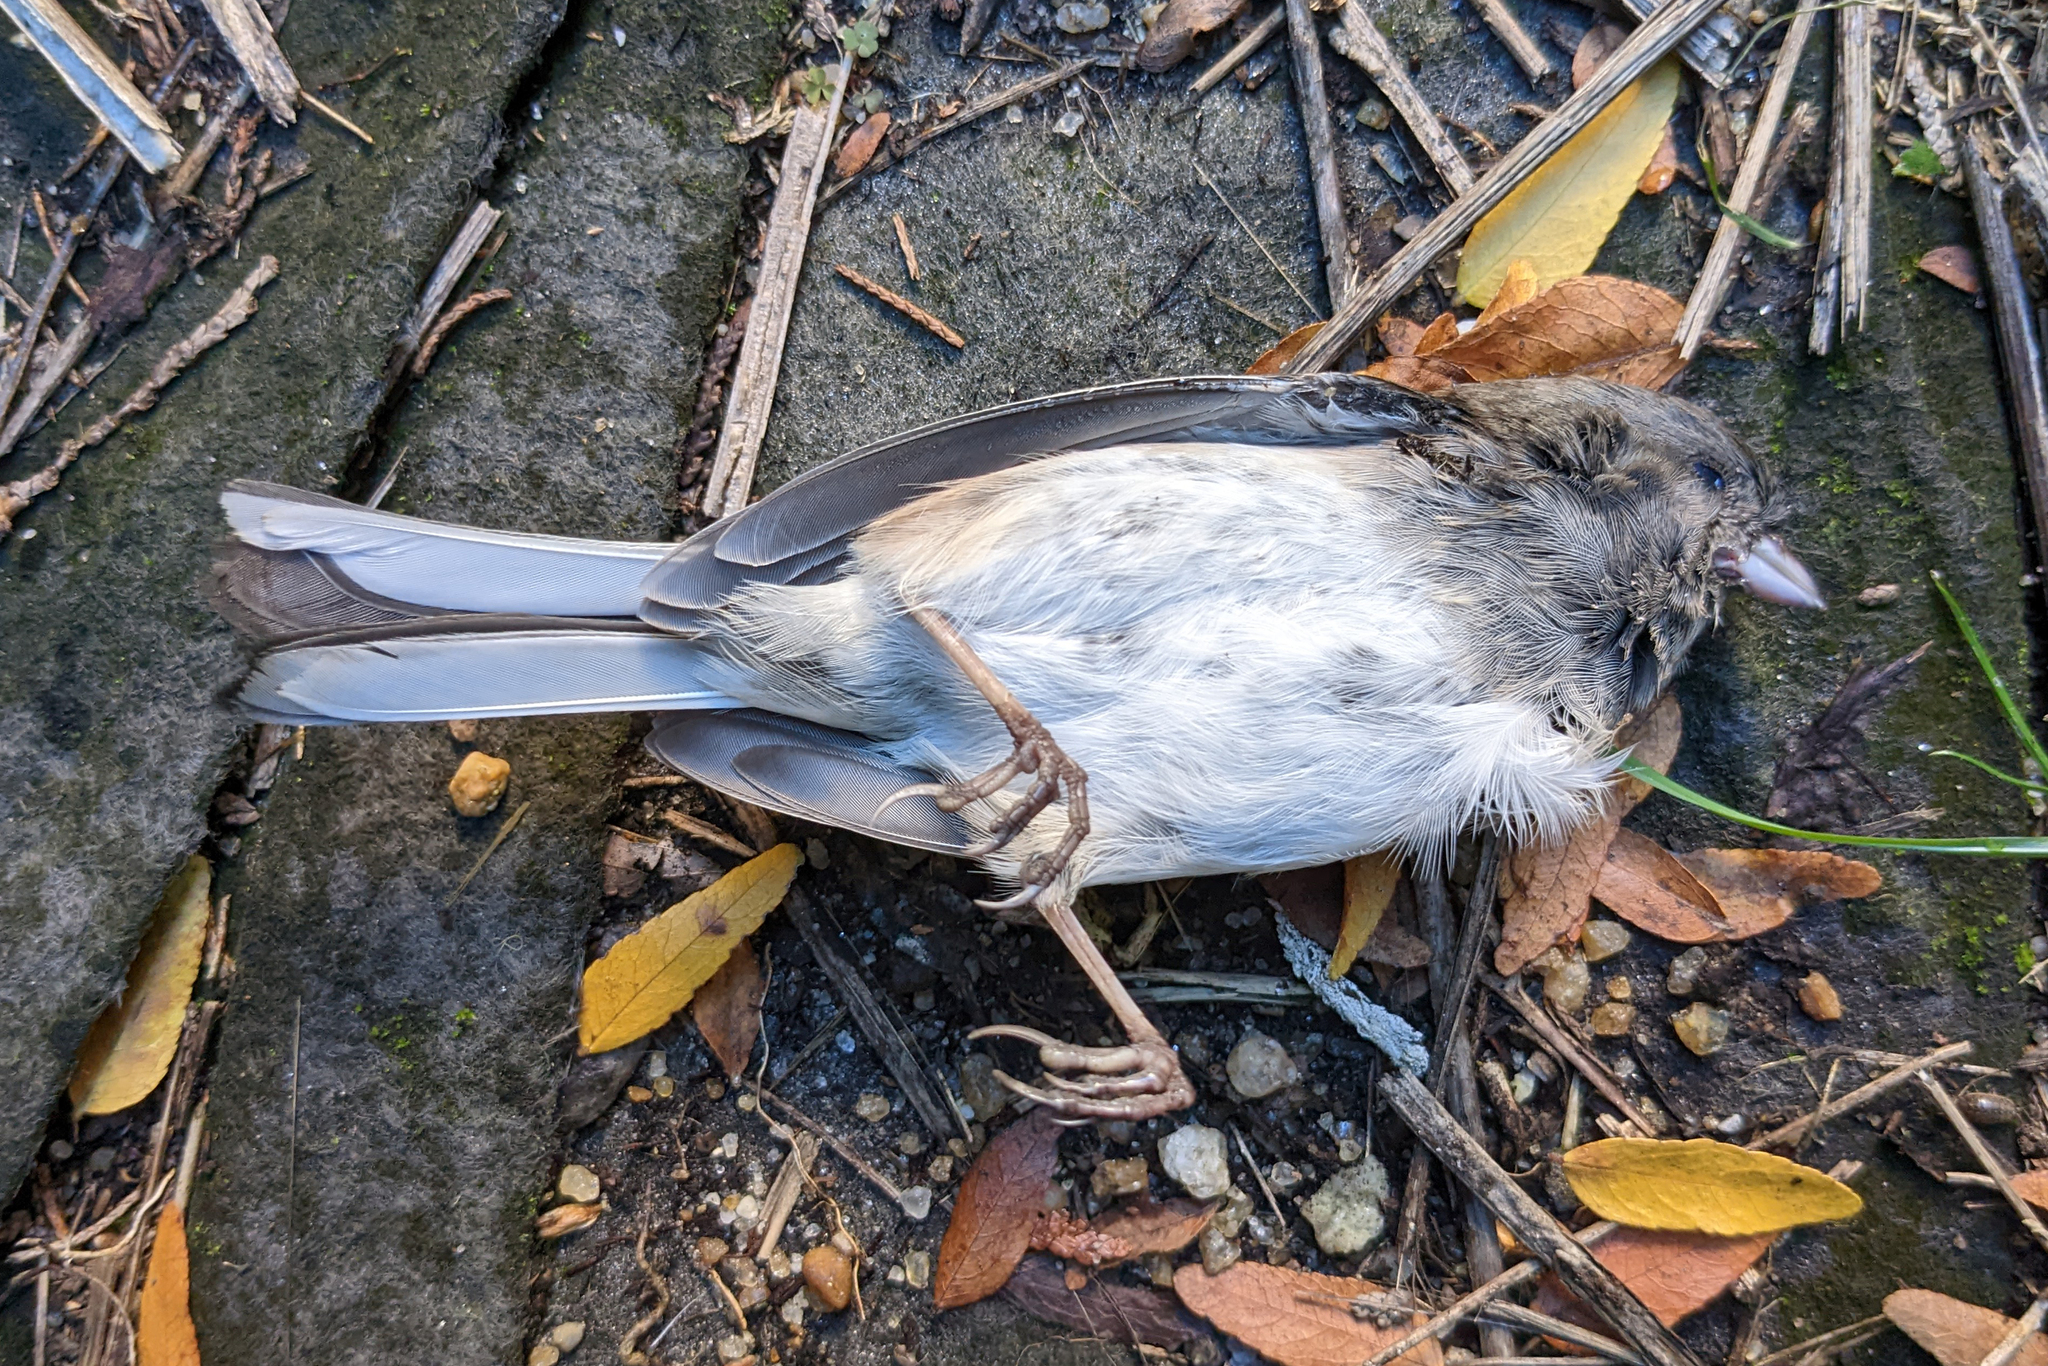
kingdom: Animalia
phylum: Chordata
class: Aves
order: Passeriformes
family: Passerellidae
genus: Junco
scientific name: Junco hyemalis
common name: Dark-eyed junco
